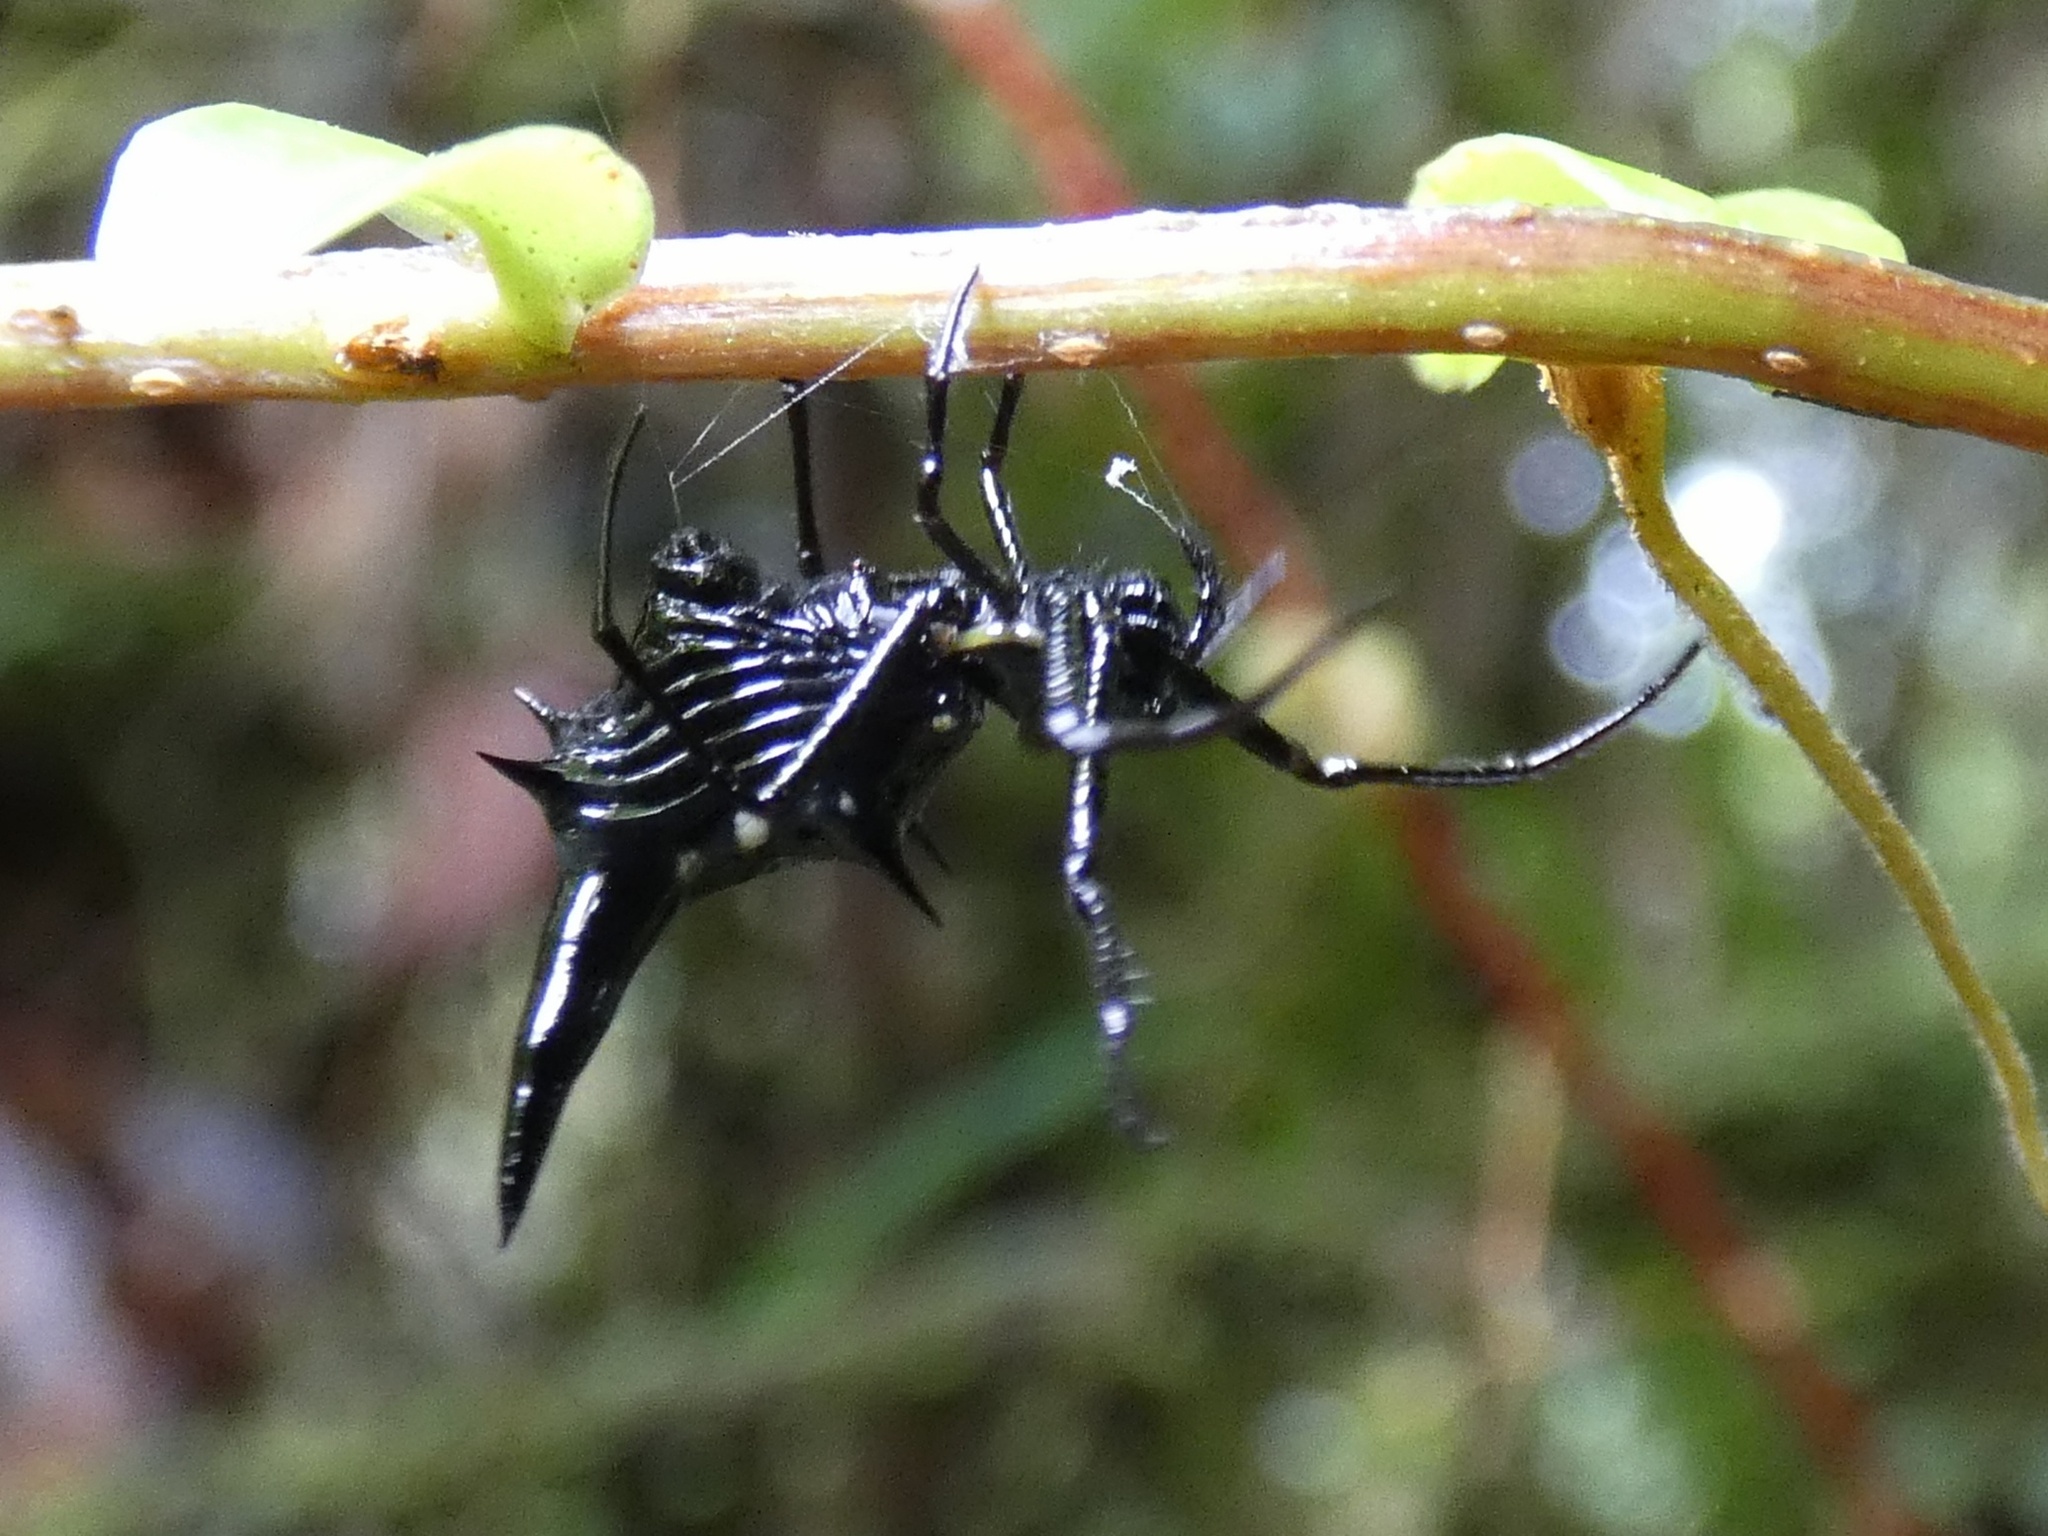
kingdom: Animalia
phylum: Arthropoda
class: Arachnida
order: Araneae
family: Araneidae
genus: Micrathena
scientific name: Micrathena raimondi
